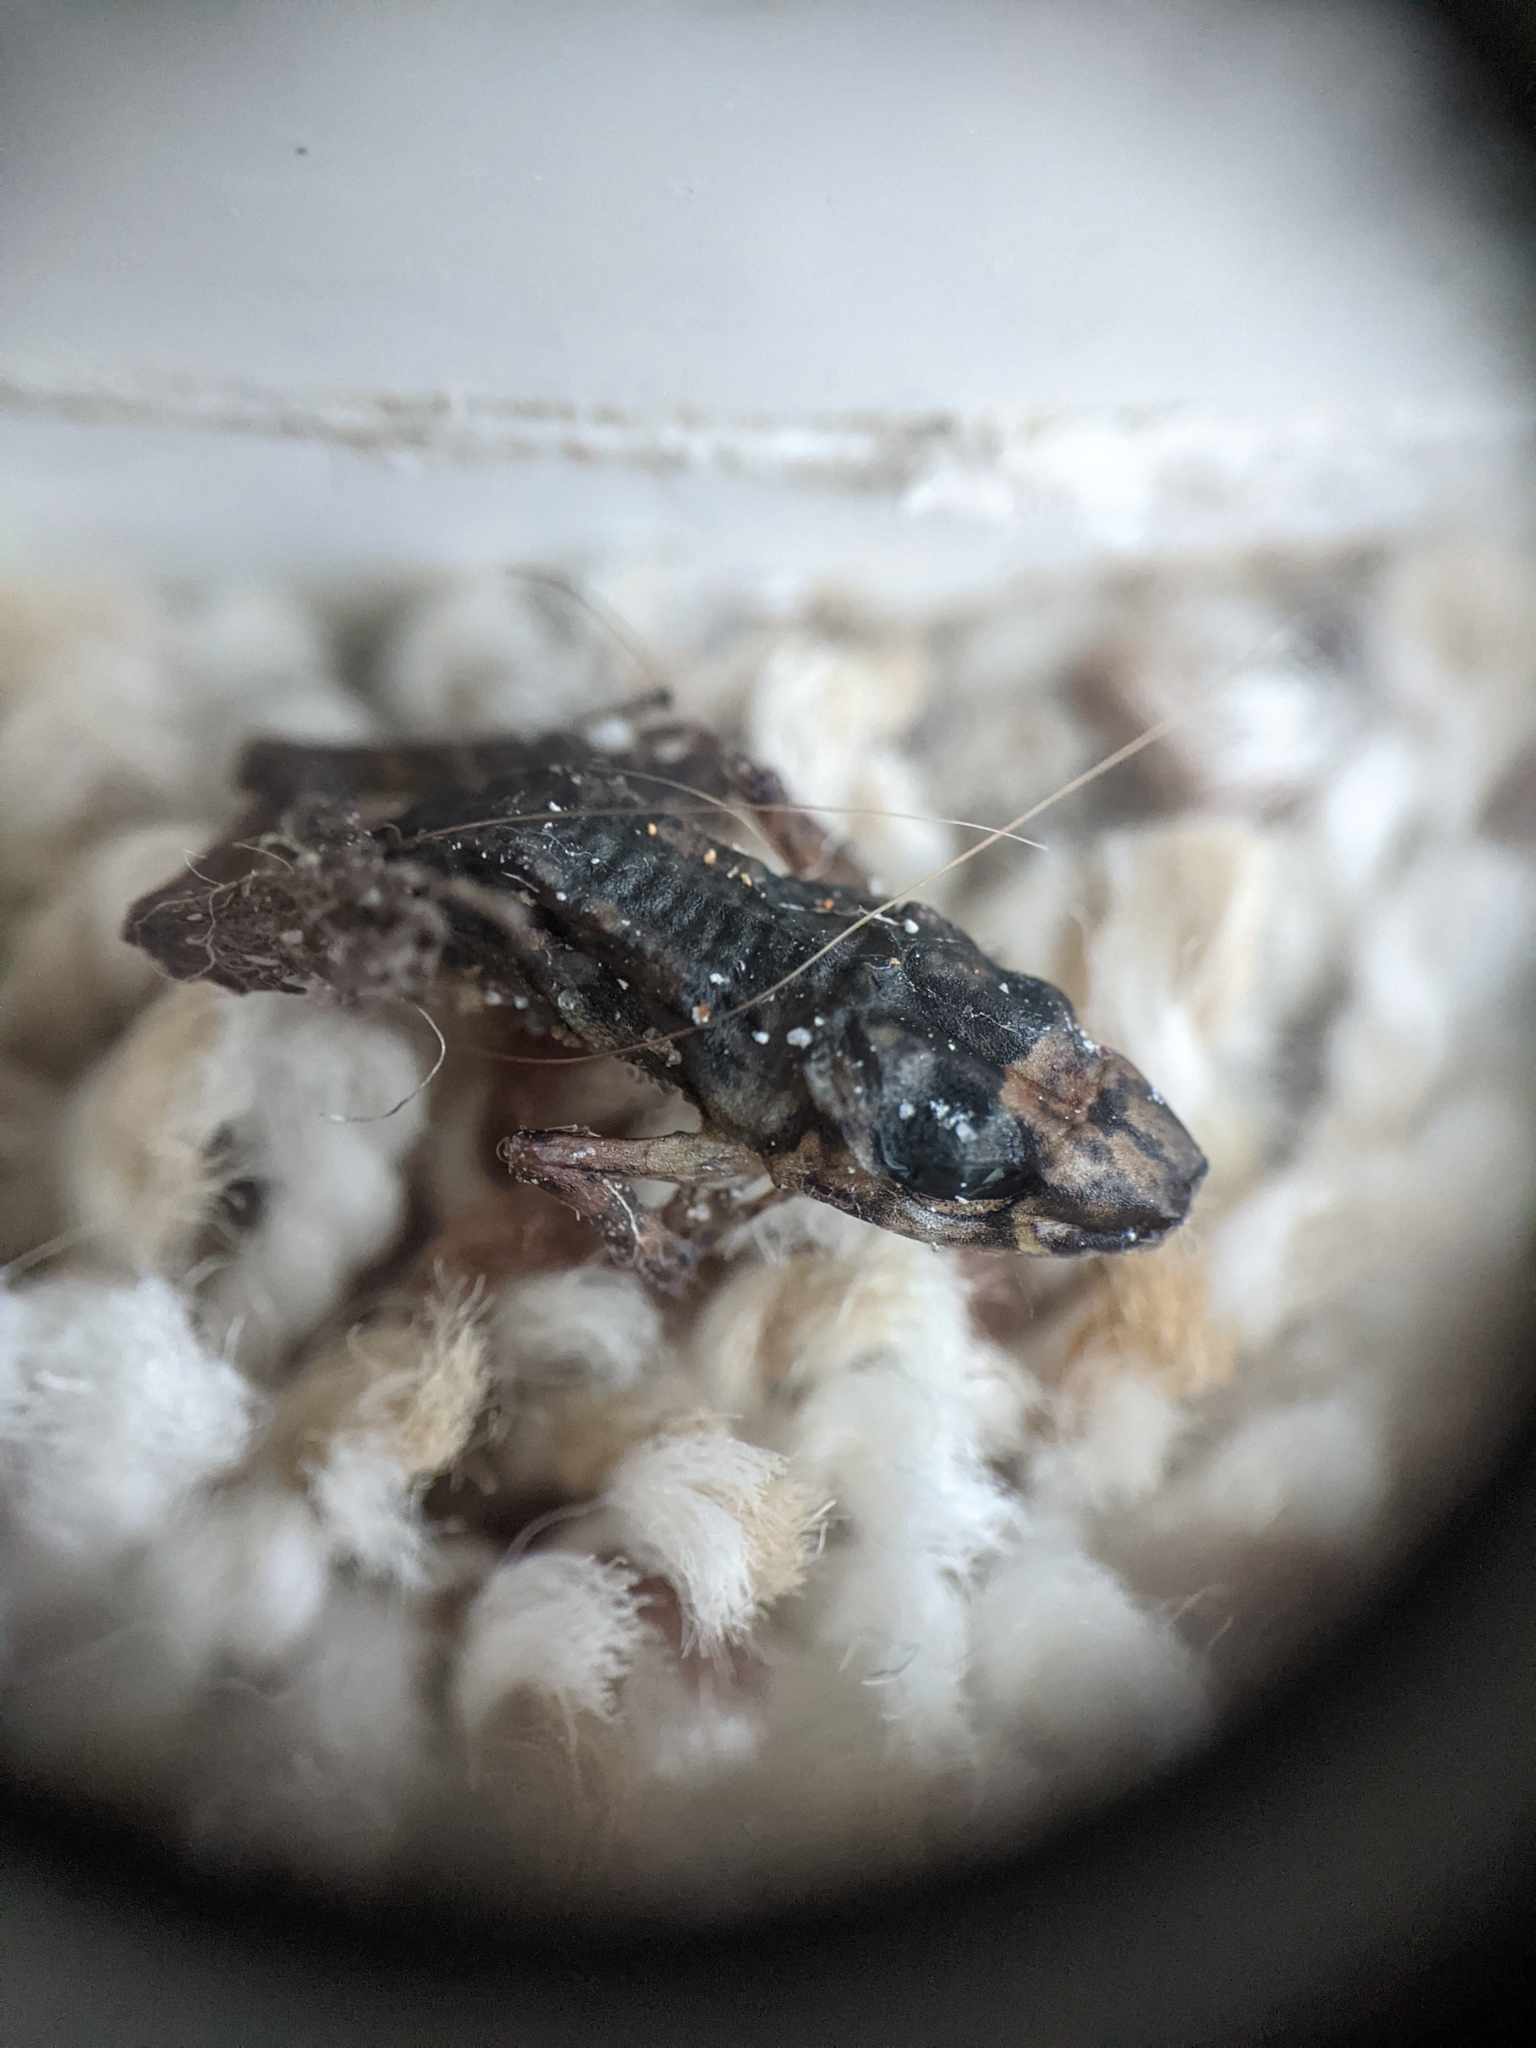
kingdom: Animalia
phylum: Chordata
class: Amphibia
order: Anura
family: Eleutherodactylidae
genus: Eleutherodactylus
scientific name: Eleutherodactylus planirostris
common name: Greenhouse frog
